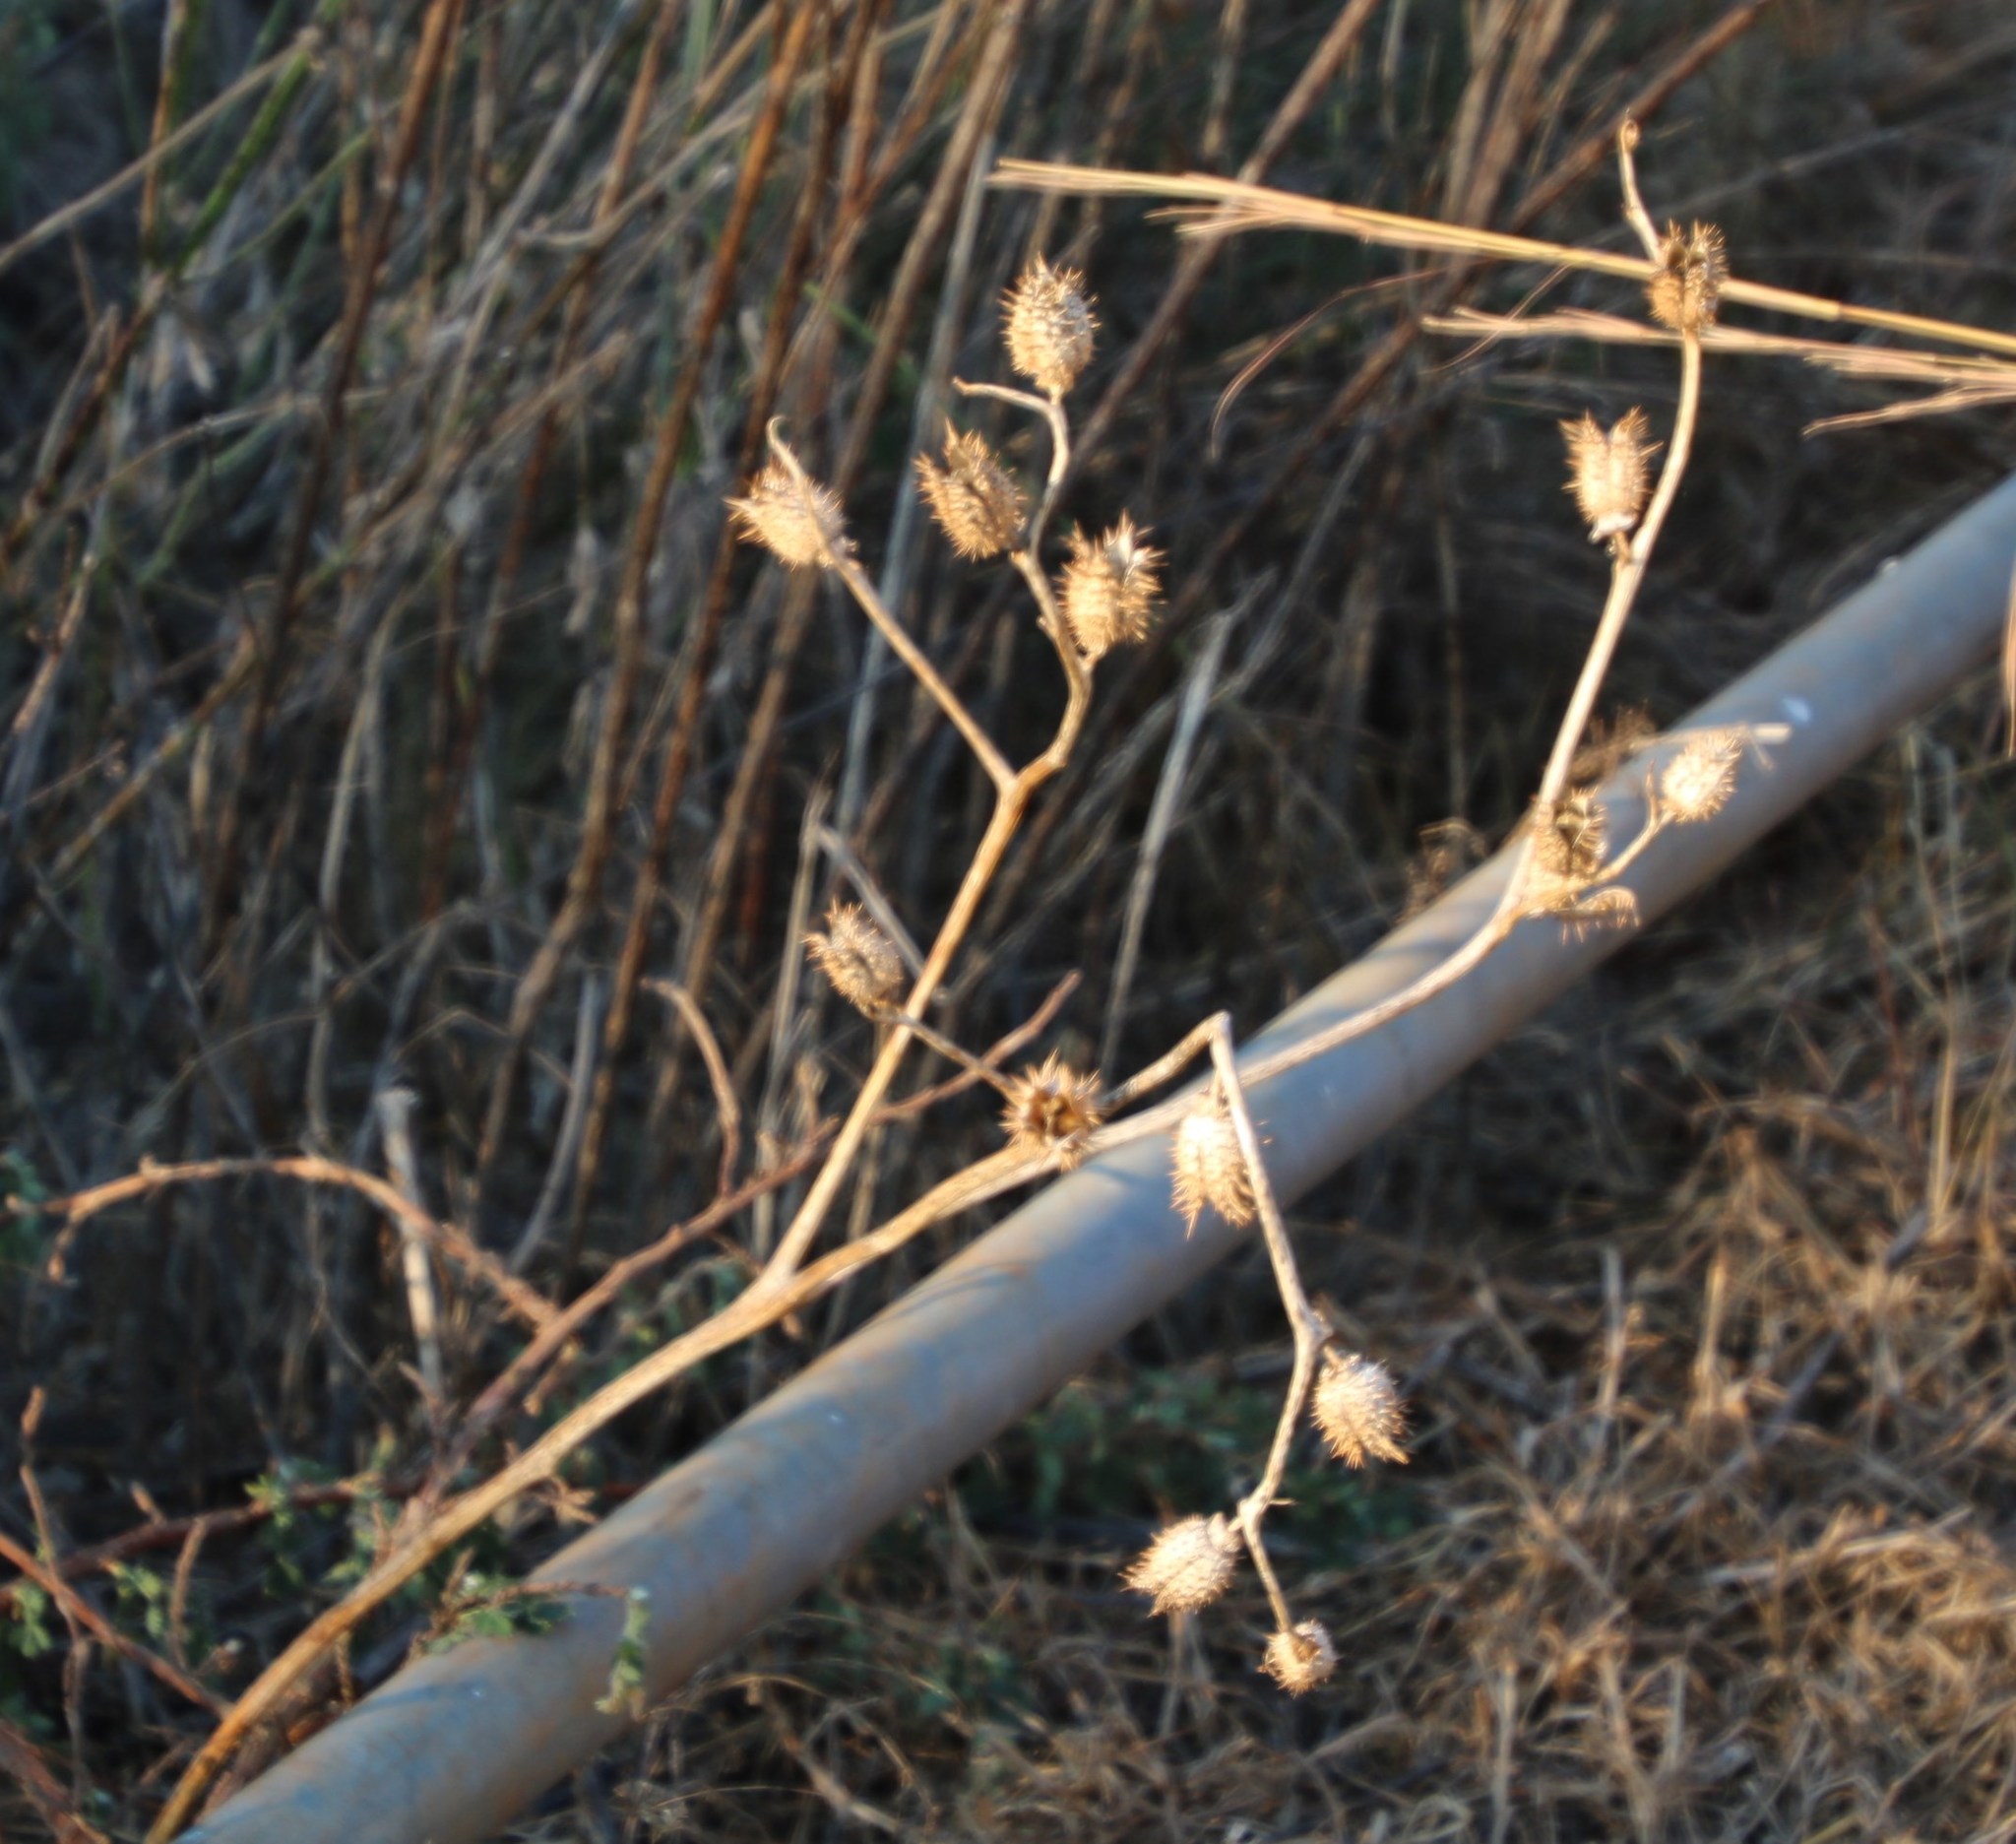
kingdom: Plantae
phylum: Tracheophyta
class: Magnoliopsida
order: Solanales
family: Solanaceae
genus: Datura
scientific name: Datura stramonium
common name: Thorn-apple
